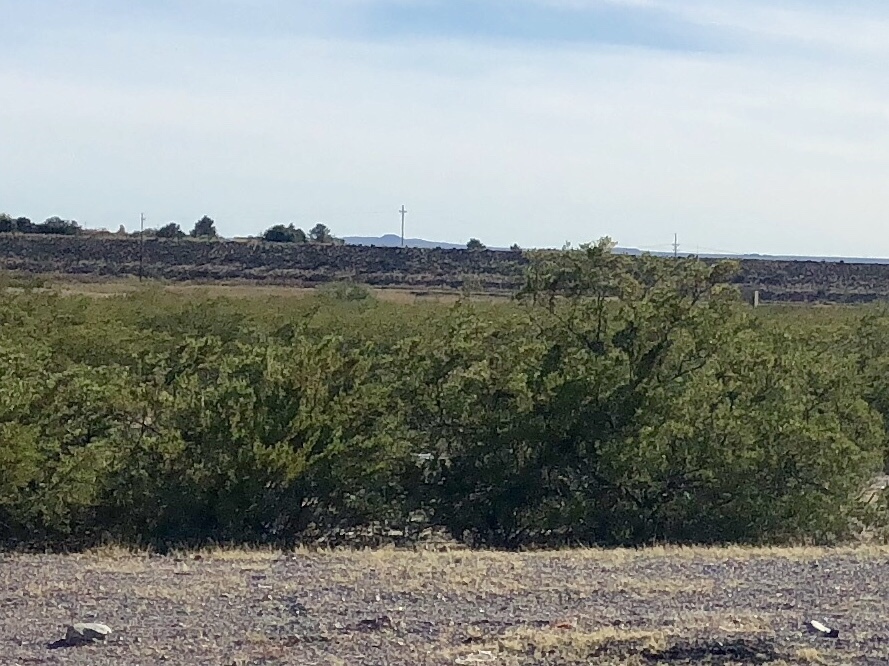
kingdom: Plantae
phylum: Tracheophyta
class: Magnoliopsida
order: Zygophyllales
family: Zygophyllaceae
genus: Larrea
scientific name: Larrea tridentata
